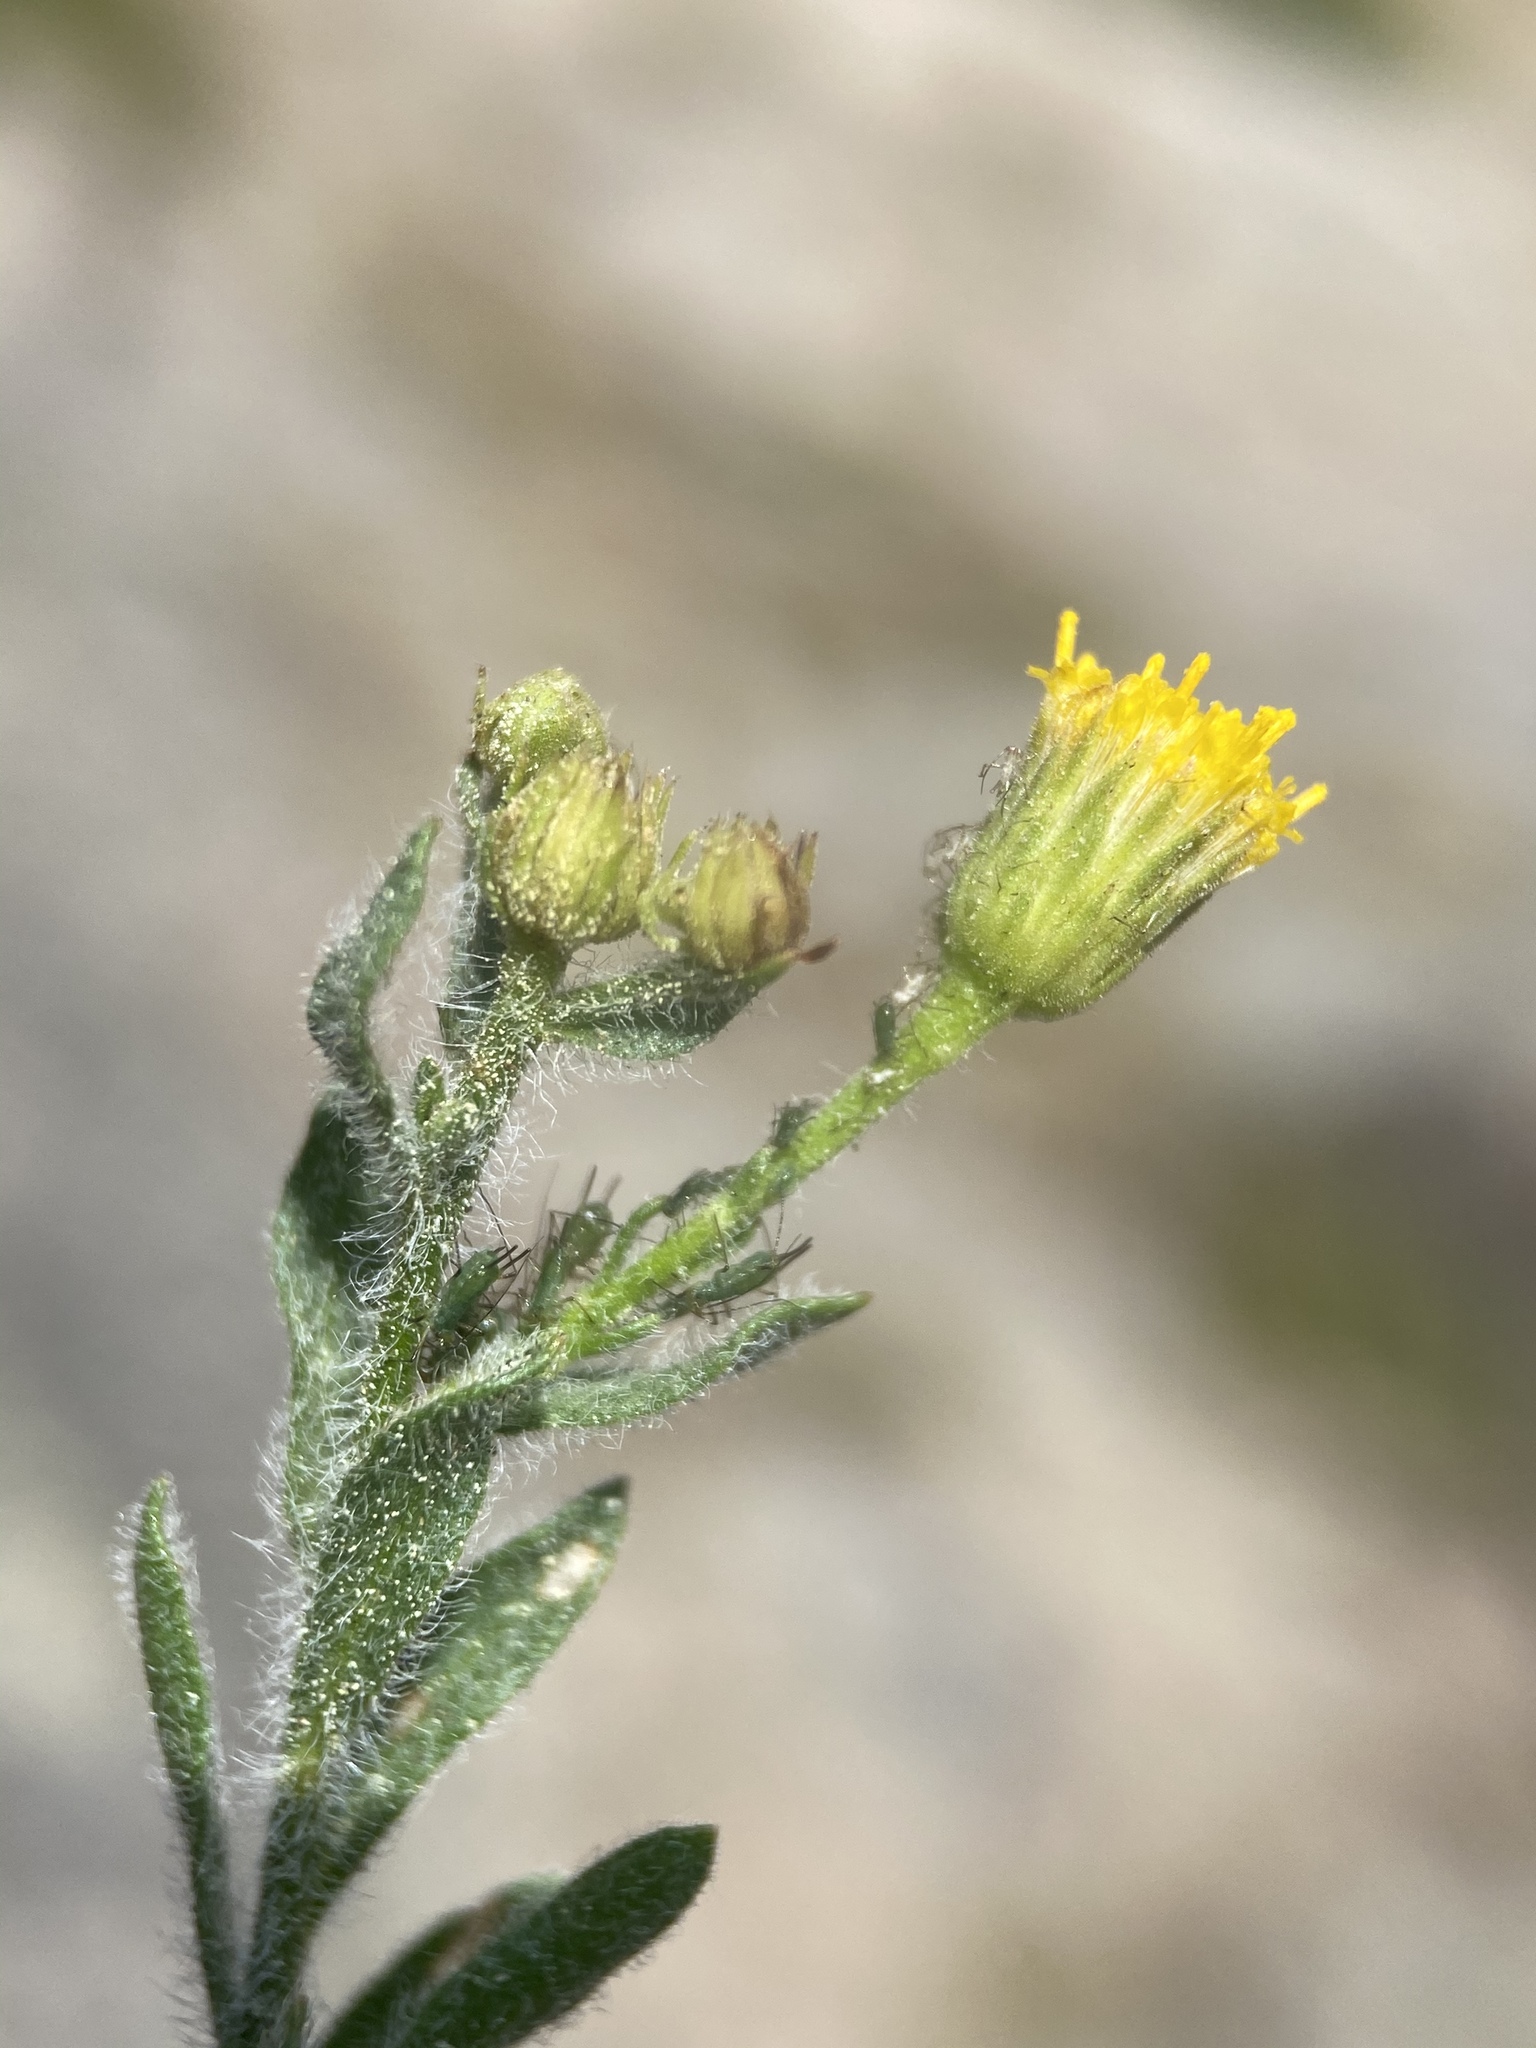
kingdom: Plantae
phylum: Tracheophyta
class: Magnoliopsida
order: Asterales
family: Asteraceae
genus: Erigeron
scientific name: Erigeron miser
